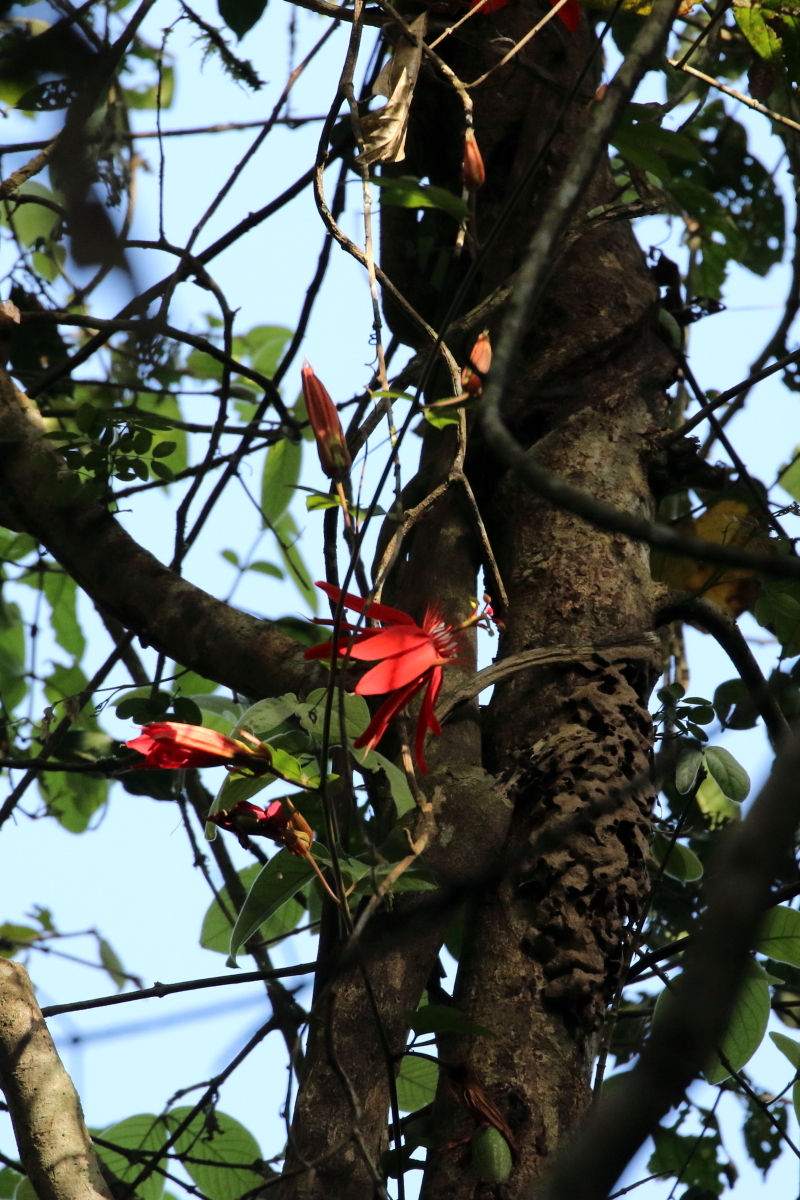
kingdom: Plantae
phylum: Tracheophyta
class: Magnoliopsida
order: Malpighiales
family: Passifloraceae
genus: Passiflora
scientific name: Passiflora vitifolia
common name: Perfumed passionflower
